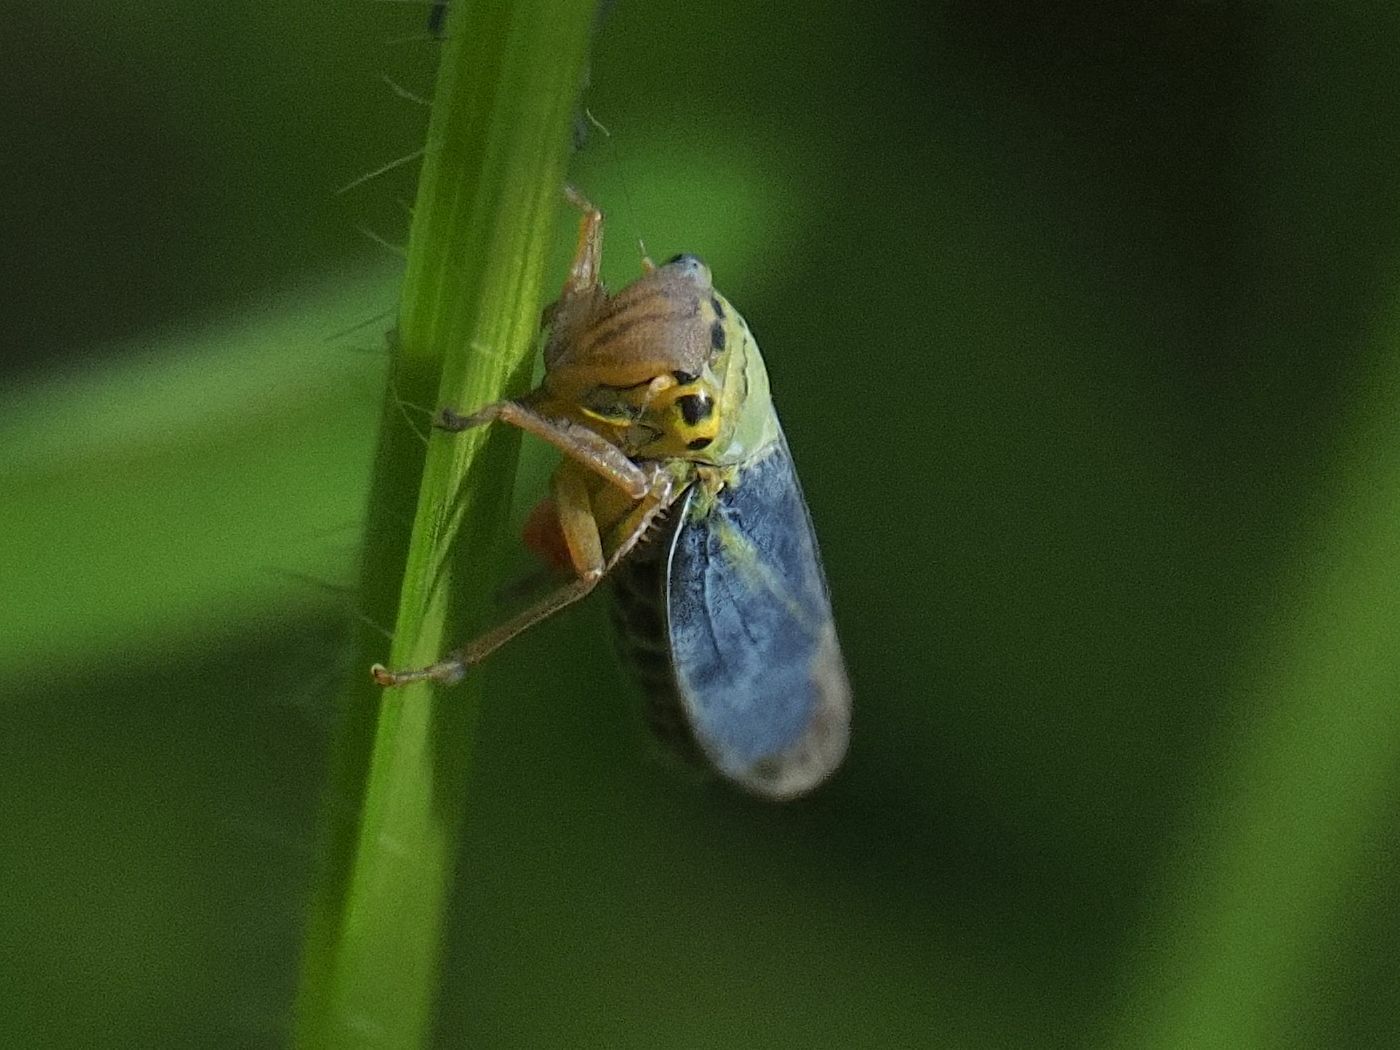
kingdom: Animalia
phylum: Arthropoda
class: Insecta
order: Hemiptera
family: Cicadellidae
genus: Cicadella
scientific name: Cicadella viridis
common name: Leafhopper
